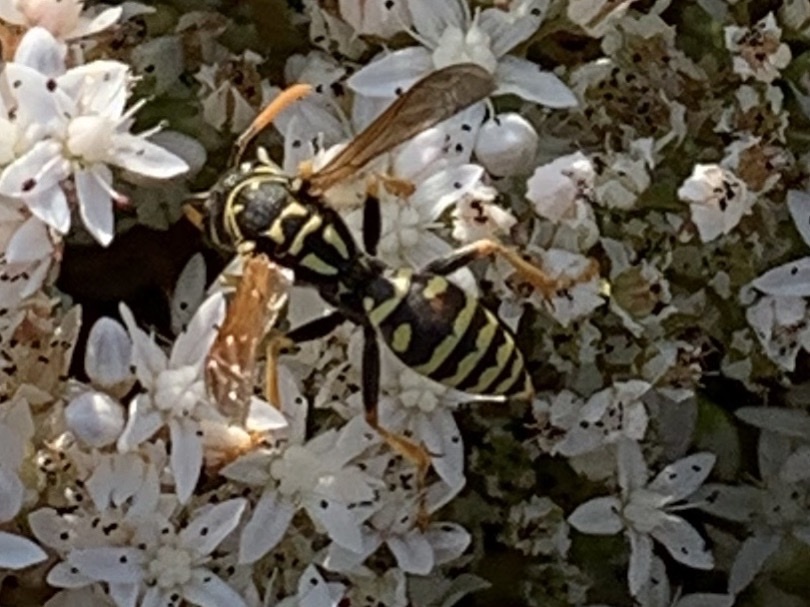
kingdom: Animalia
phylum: Arthropoda
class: Insecta
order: Hymenoptera
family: Eumenidae
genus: Polistes
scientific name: Polistes dominula
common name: Paper wasp
